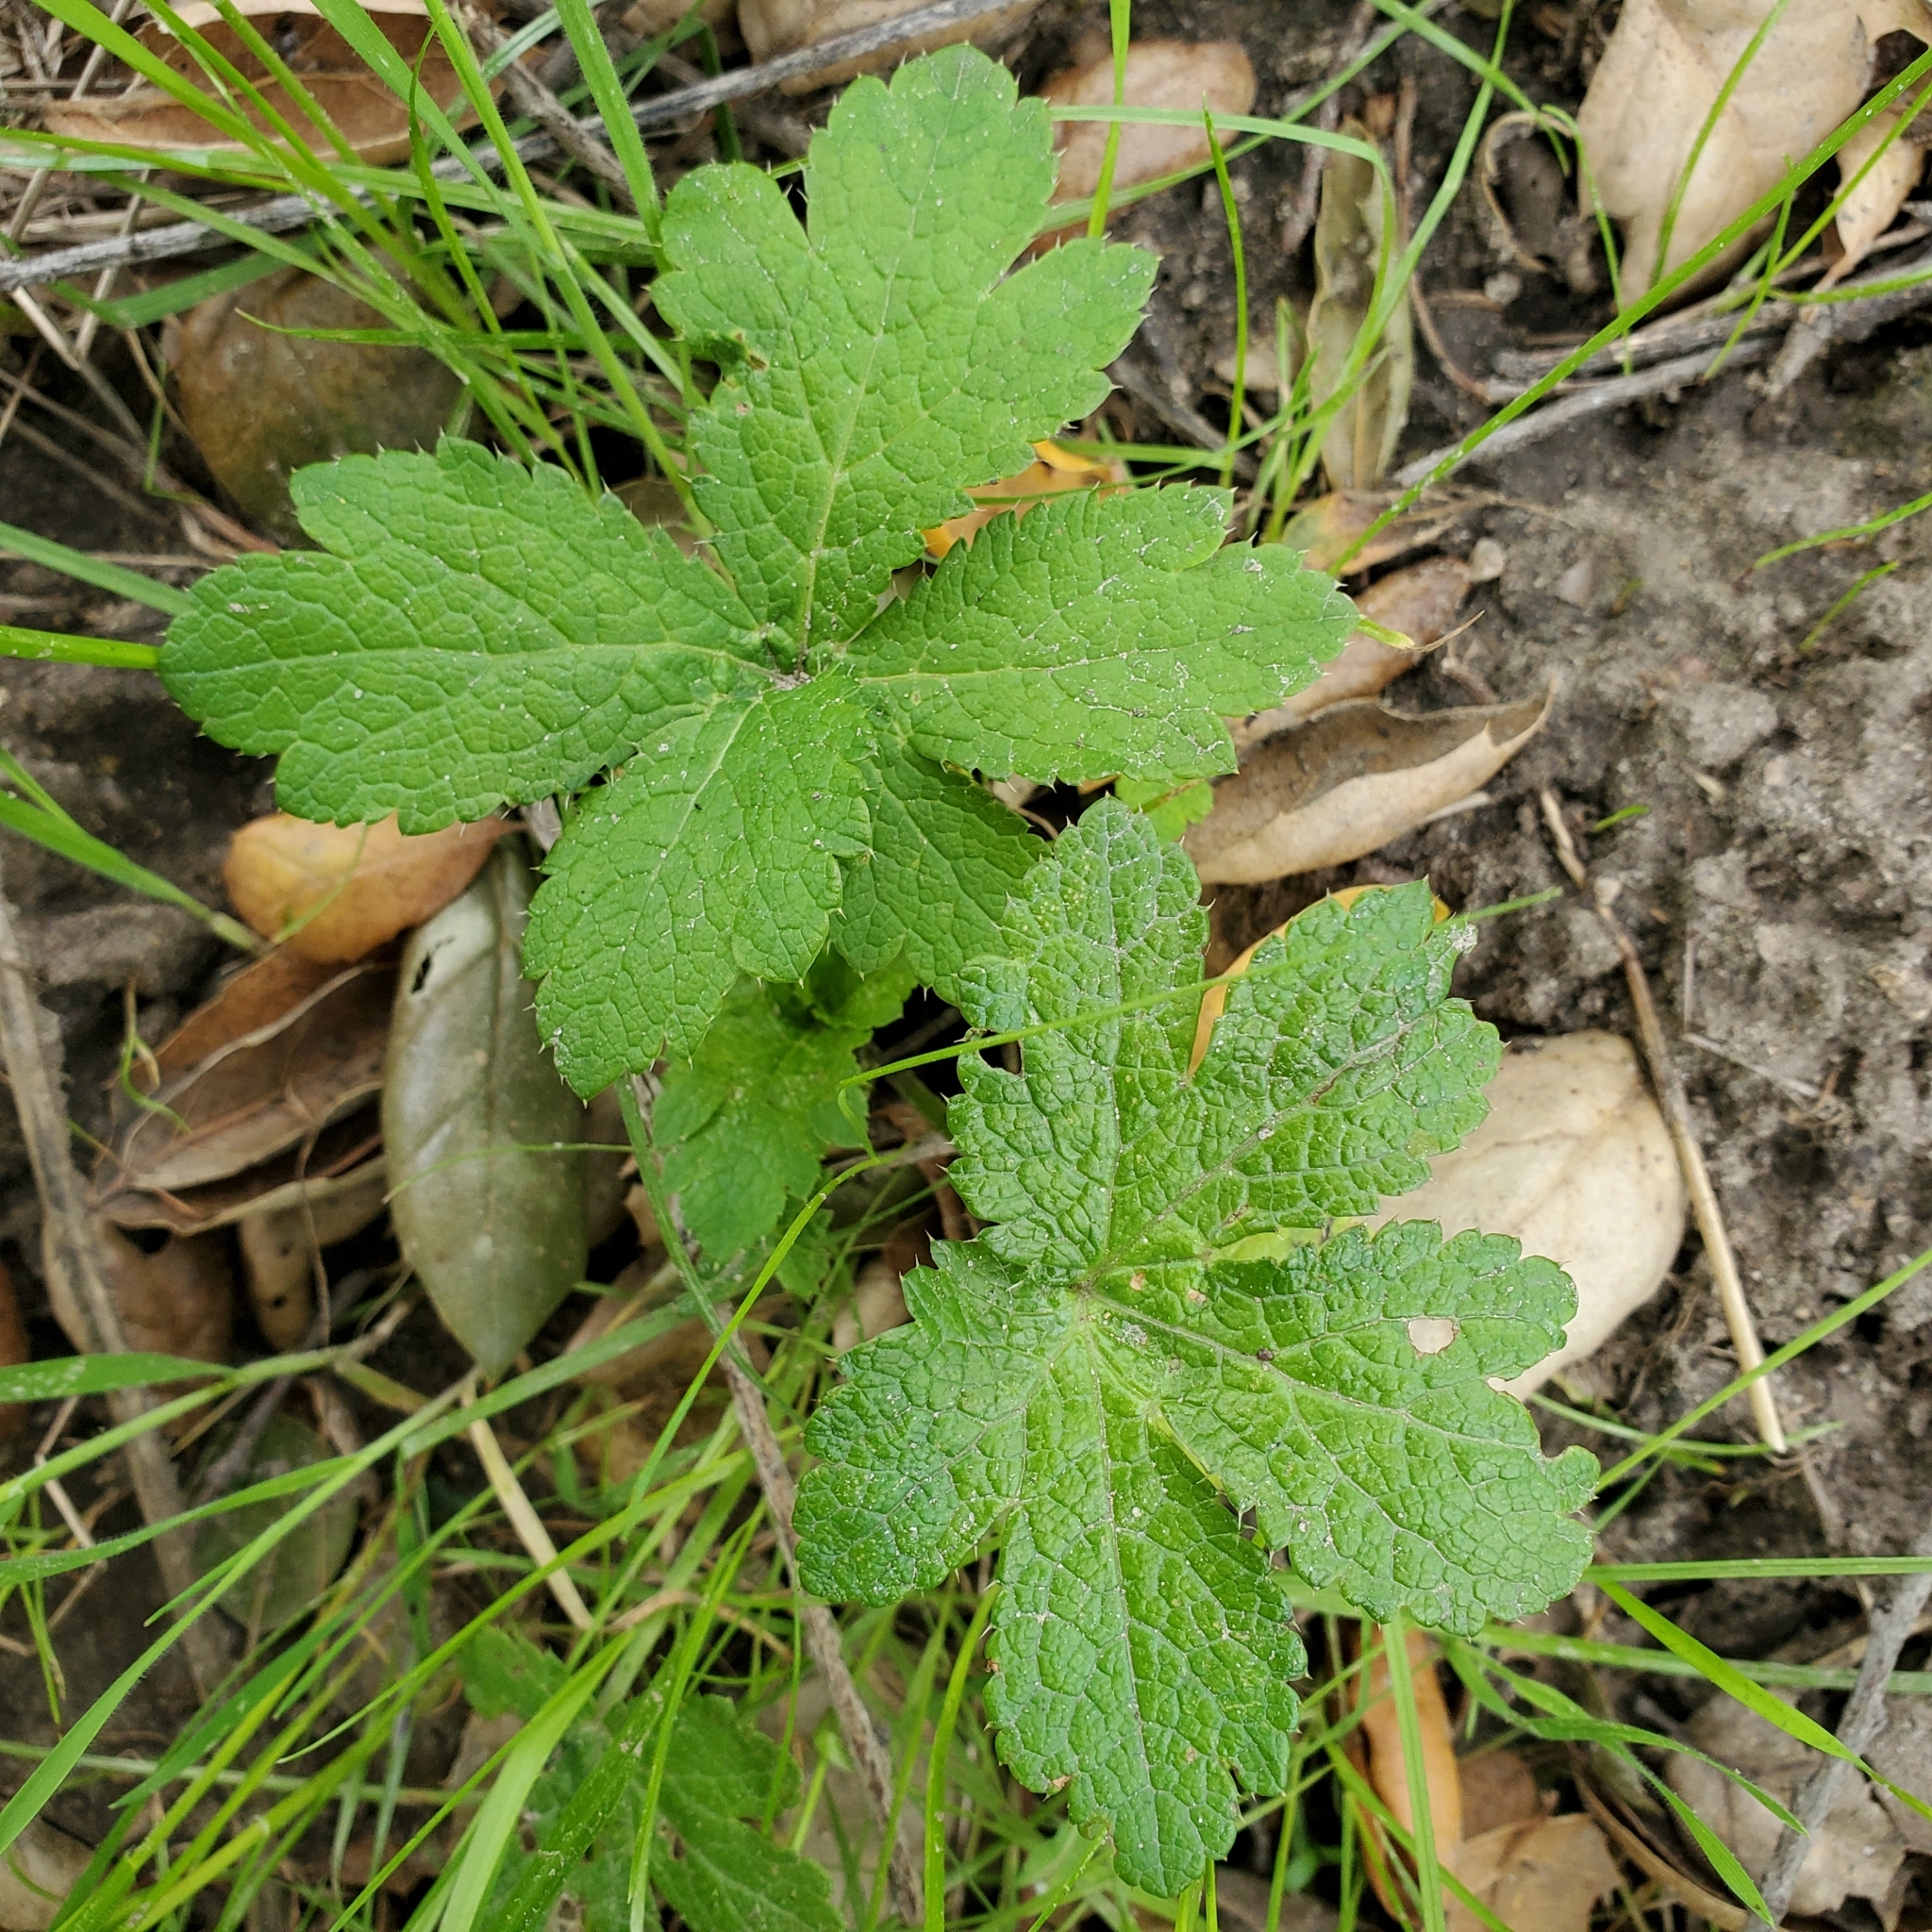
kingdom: Plantae
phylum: Tracheophyta
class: Magnoliopsida
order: Apiales
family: Apiaceae
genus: Sanicula
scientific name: Sanicula crassicaulis
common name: Western snakeroot
